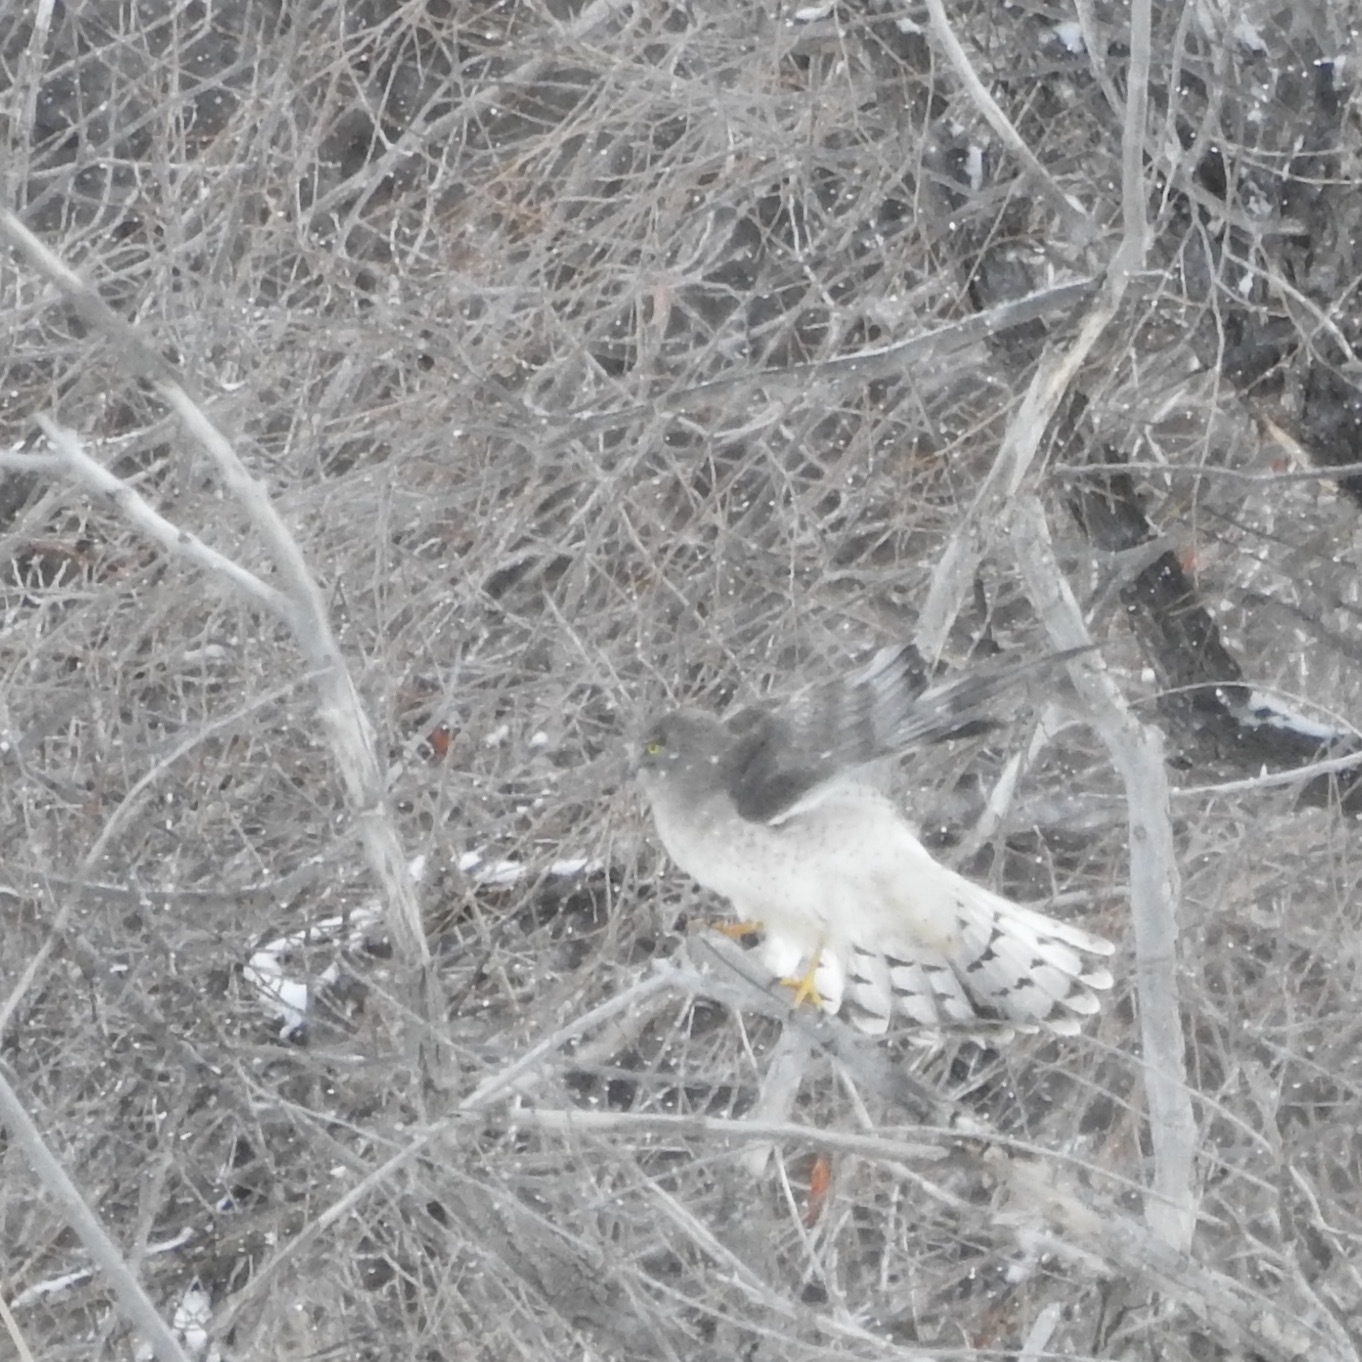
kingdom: Animalia
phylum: Chordata
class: Aves
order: Accipitriformes
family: Accipitridae
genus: Circus
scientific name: Circus cyaneus
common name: Hen harrier
